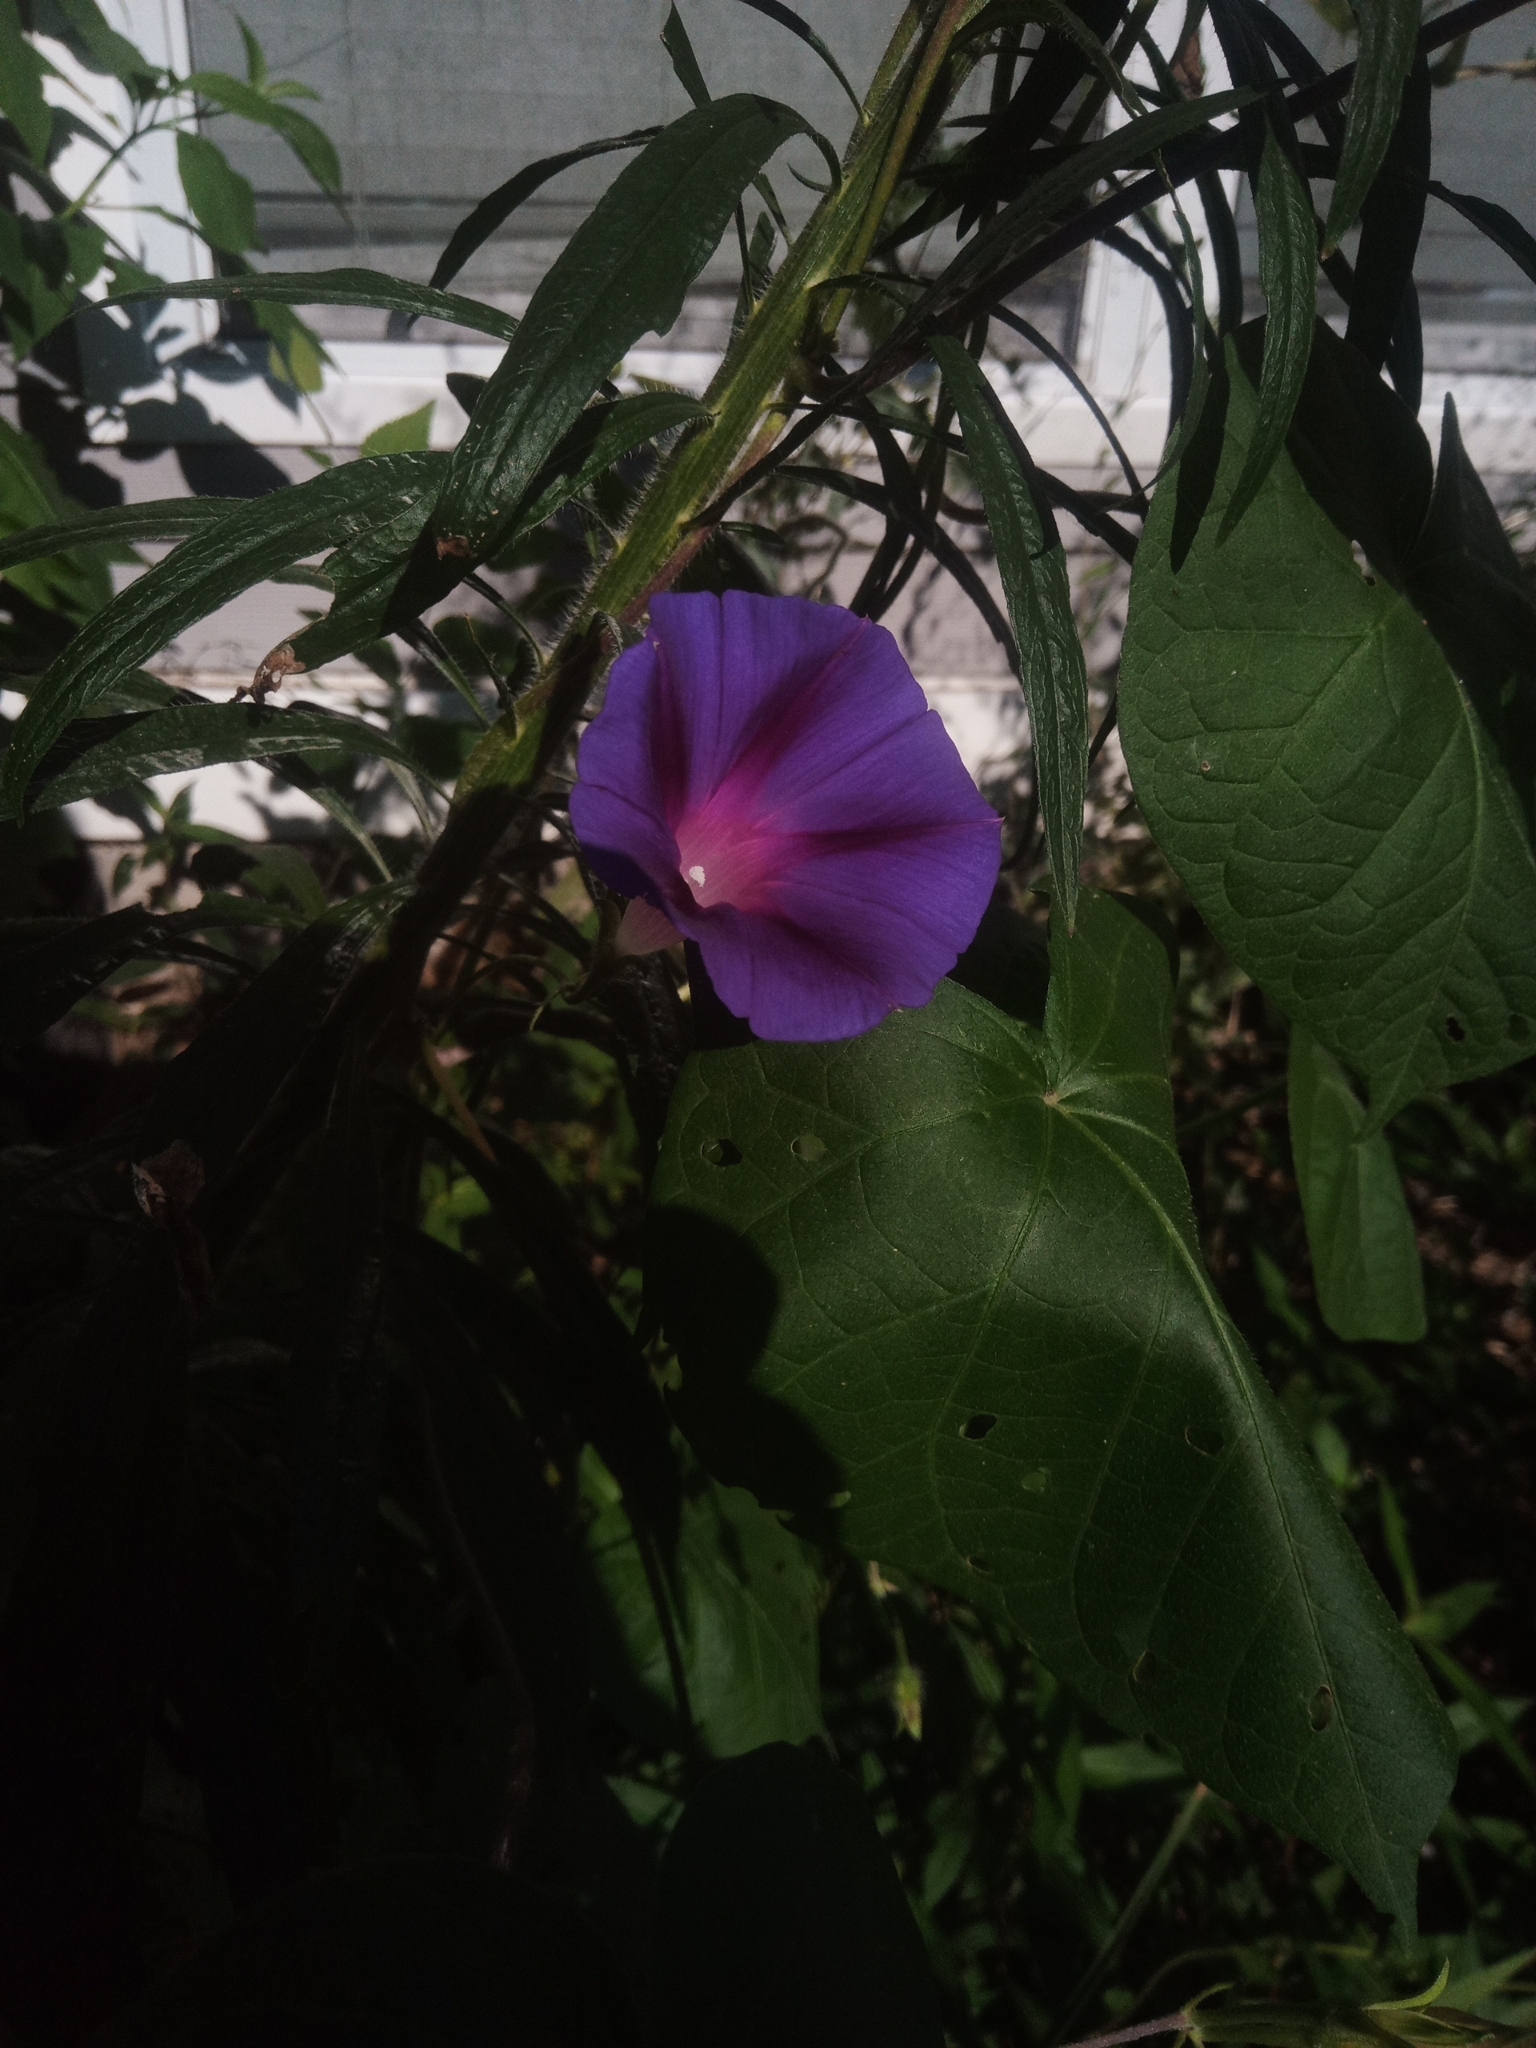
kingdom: Plantae
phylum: Tracheophyta
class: Magnoliopsida
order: Solanales
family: Convolvulaceae
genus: Ipomoea
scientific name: Ipomoea purpurea
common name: Common morning-glory
